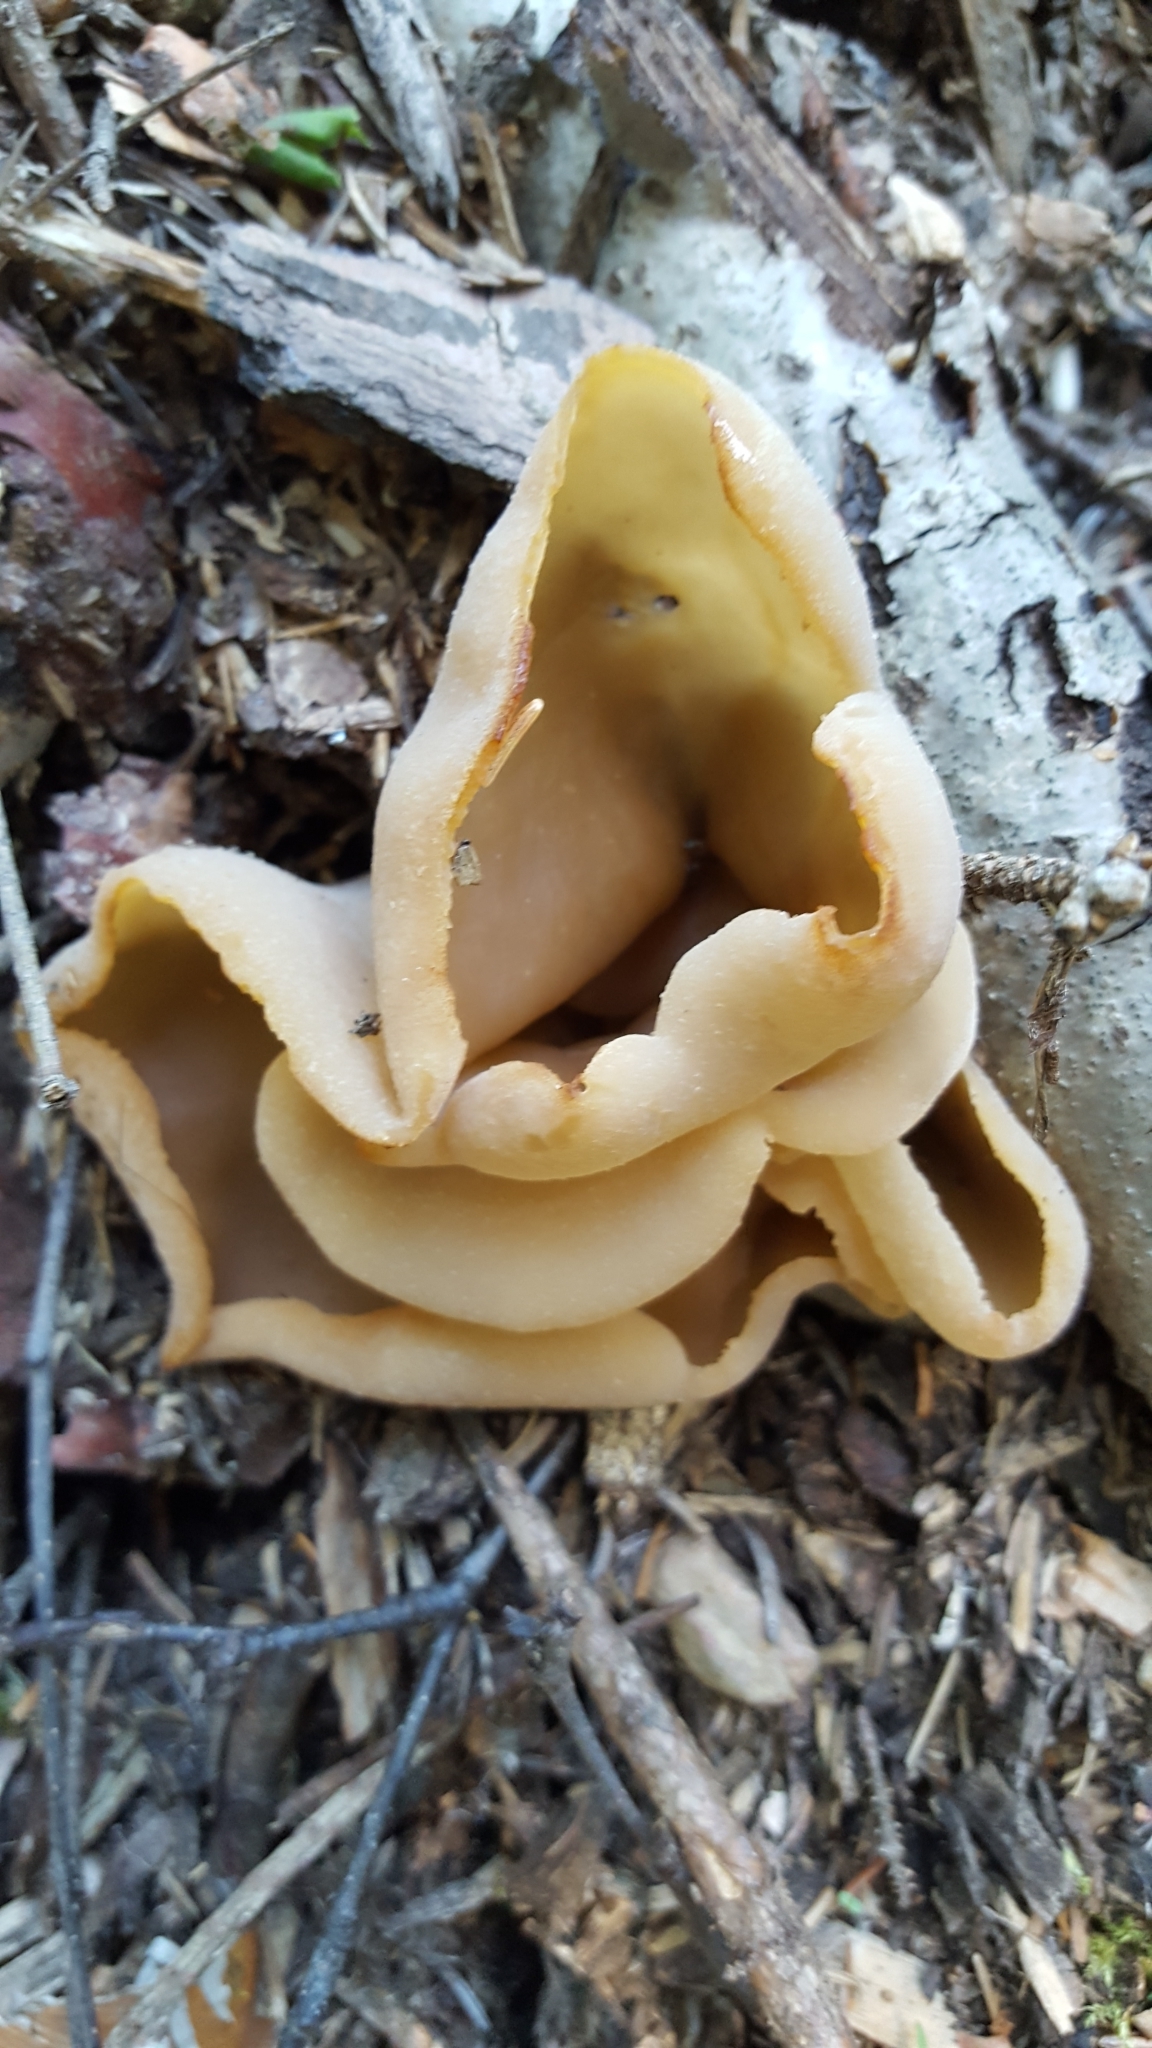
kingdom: Fungi
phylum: Ascomycota
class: Pezizomycetes
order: Pezizales
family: Pezizaceae
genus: Peziza
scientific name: Peziza varia
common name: Layered cup
